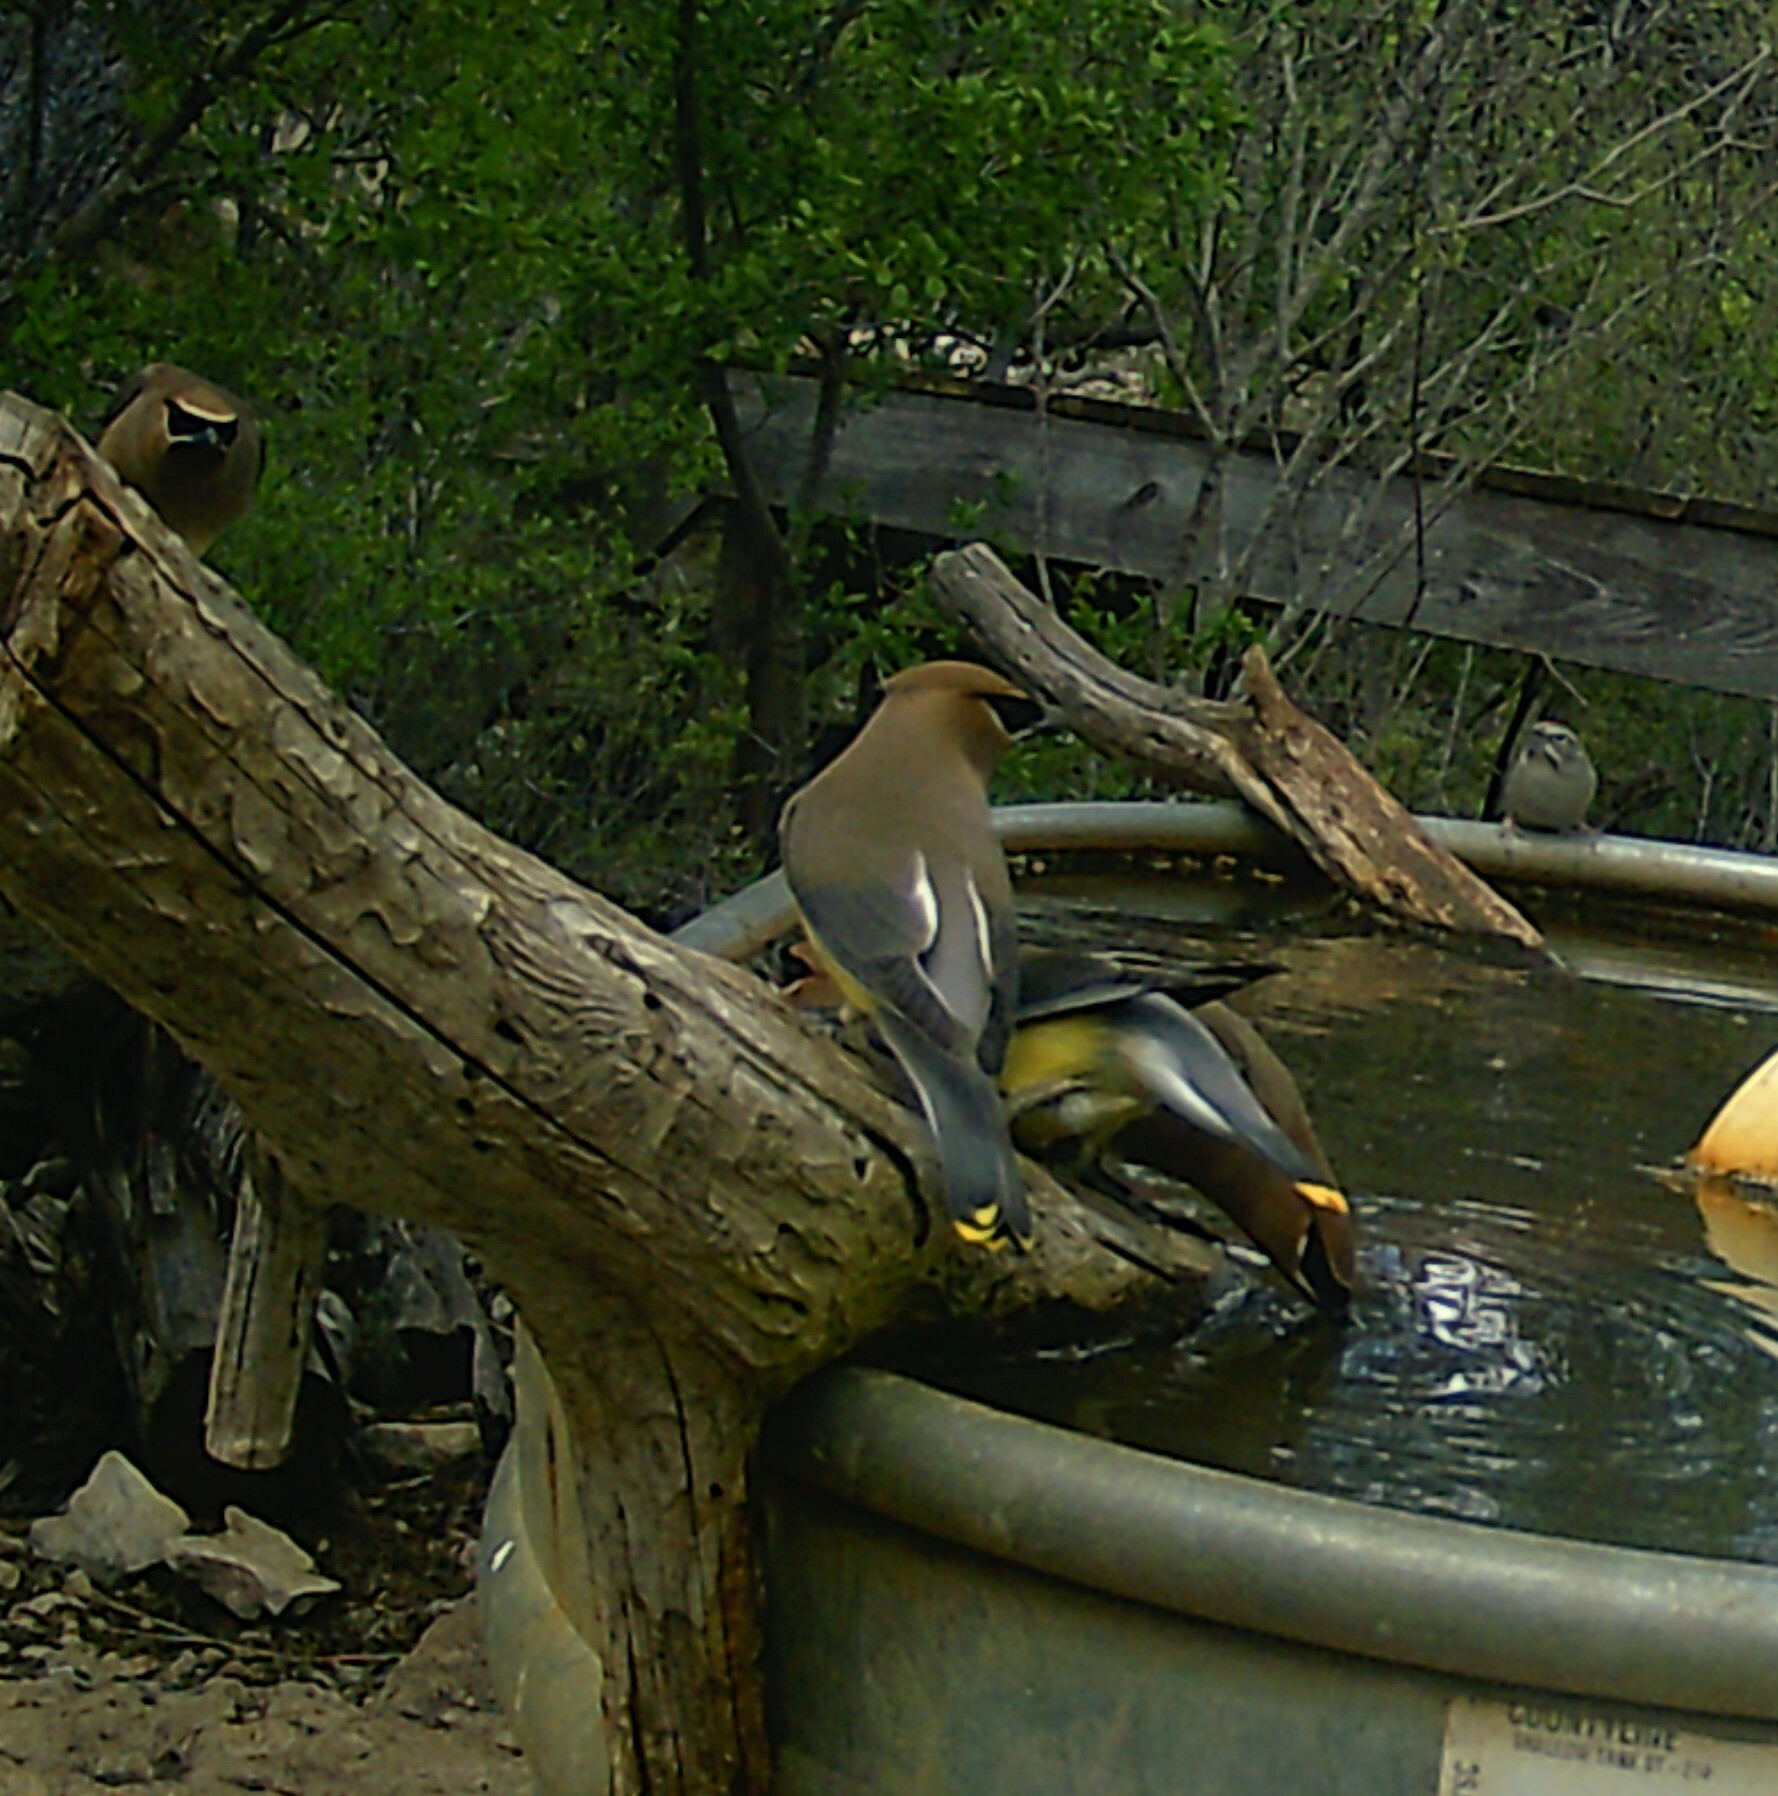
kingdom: Animalia
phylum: Chordata
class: Aves
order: Passeriformes
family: Bombycillidae
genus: Bombycilla
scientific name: Bombycilla cedrorum
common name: Cedar waxwing
